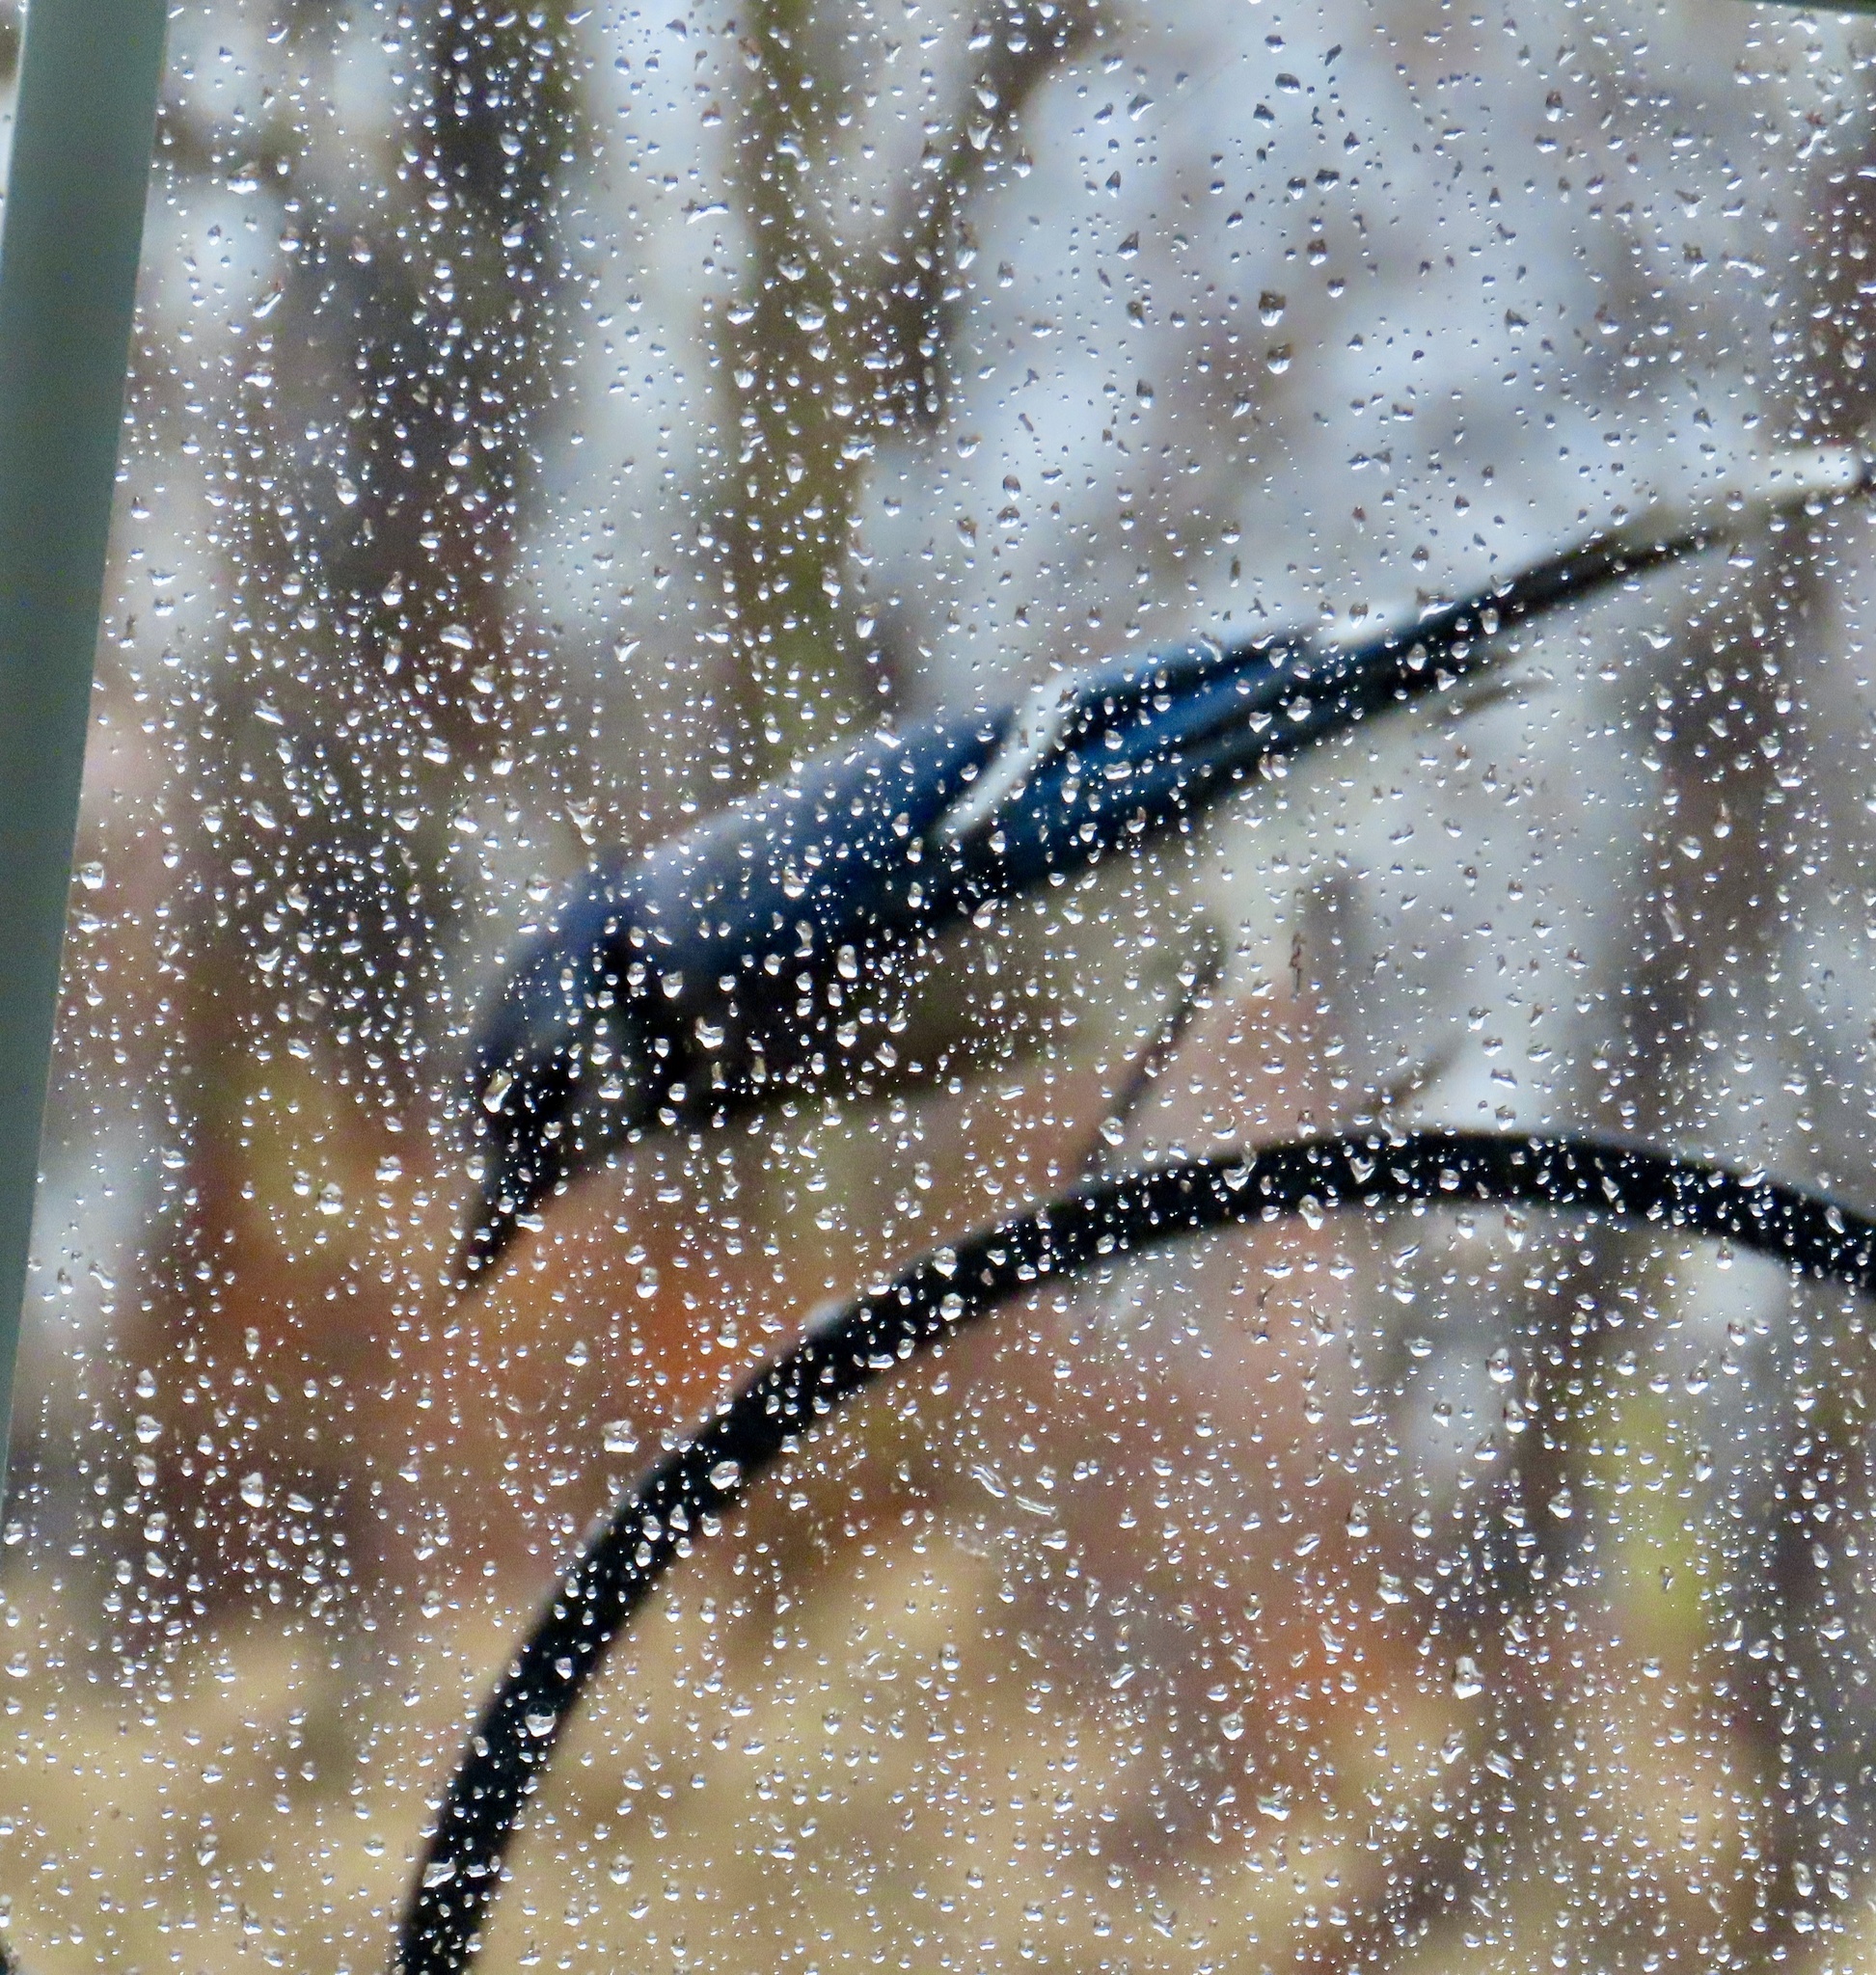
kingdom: Animalia
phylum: Chordata
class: Aves
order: Passeriformes
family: Corvidae
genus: Cyanocitta
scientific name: Cyanocitta cristata
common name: Blue jay
